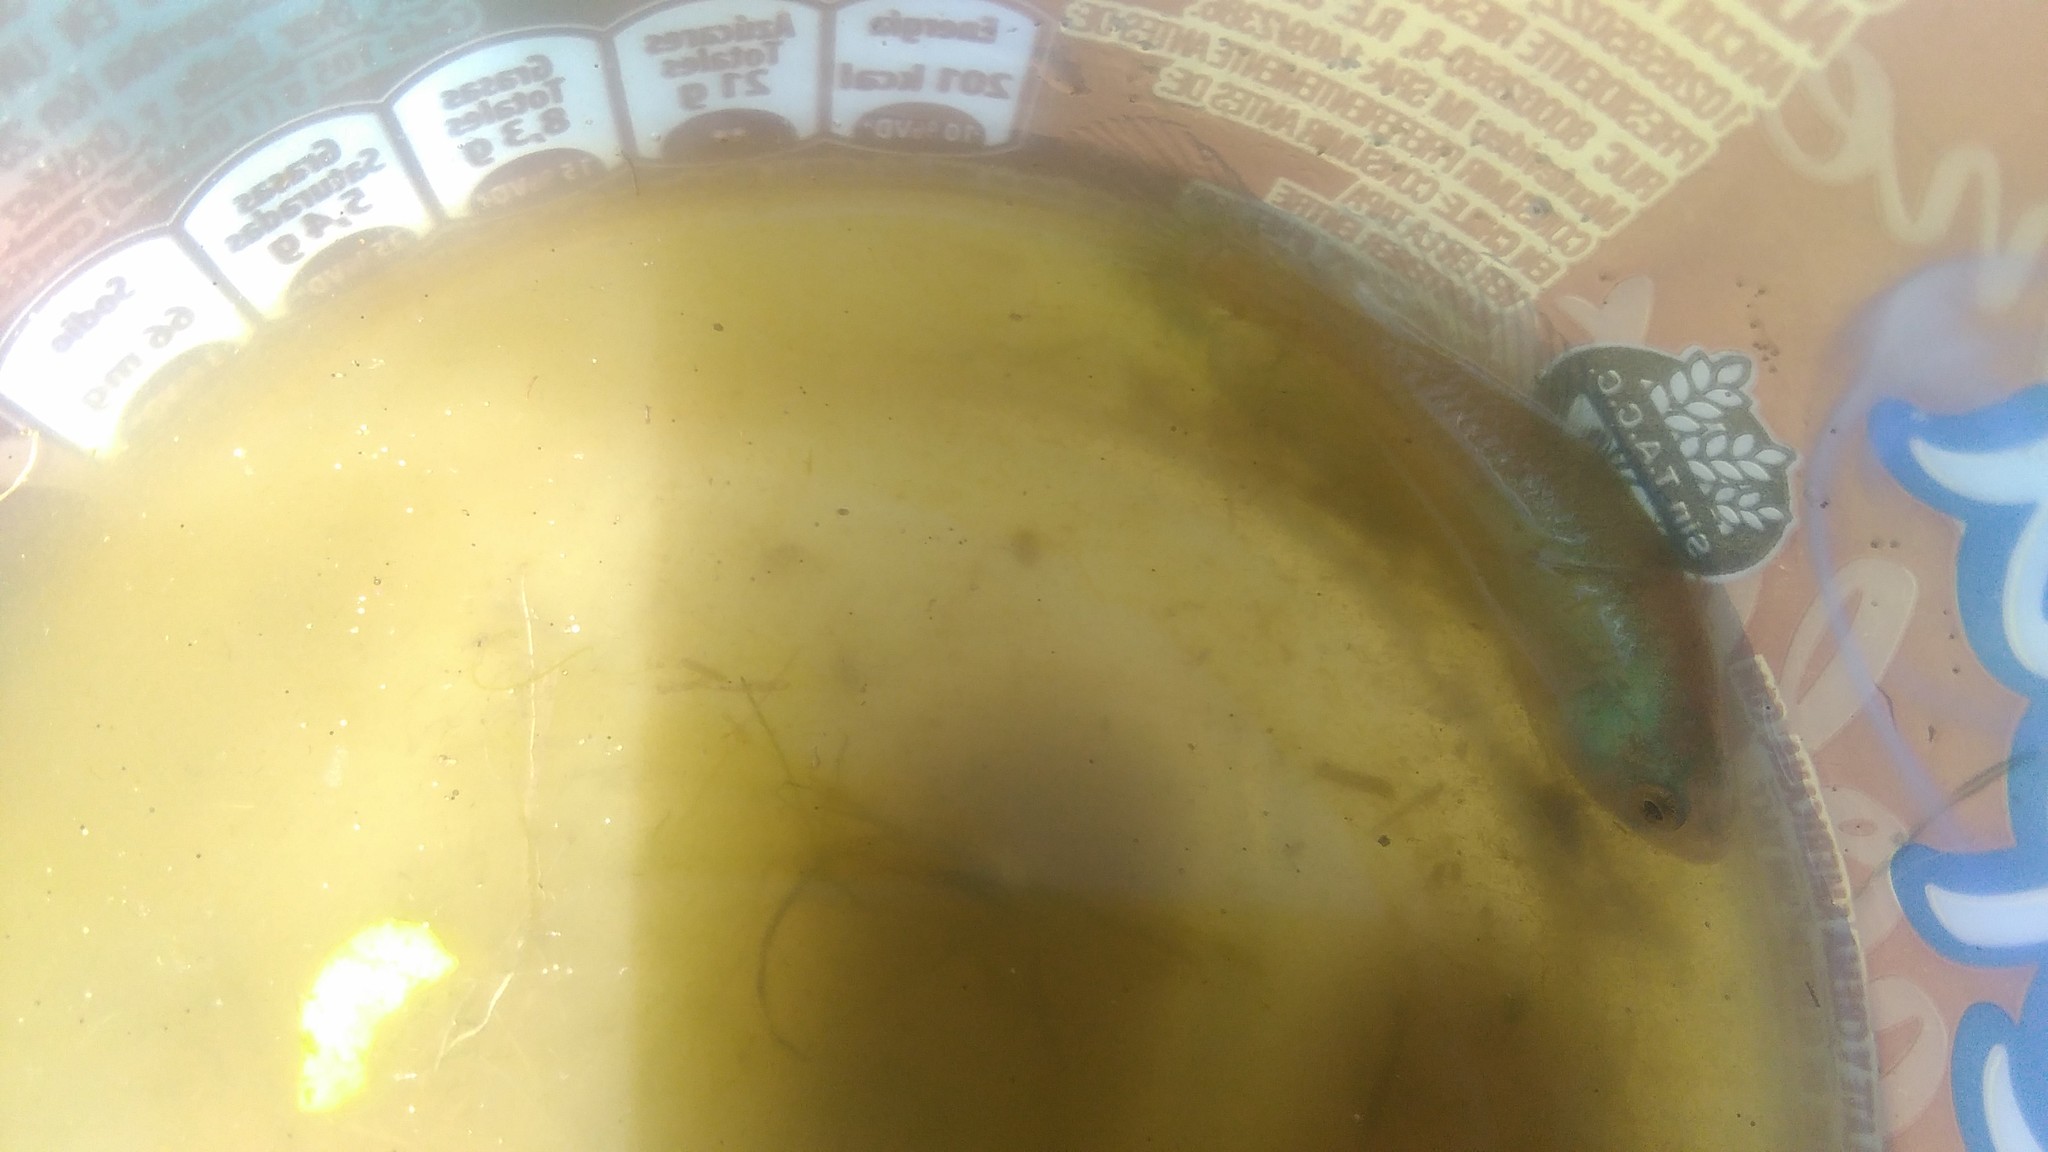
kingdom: Animalia
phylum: Chordata
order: Cyprinodontiformes
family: Rivulidae
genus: Austrolebias
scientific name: Austrolebias bellottii
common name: Argentine pearlfish
